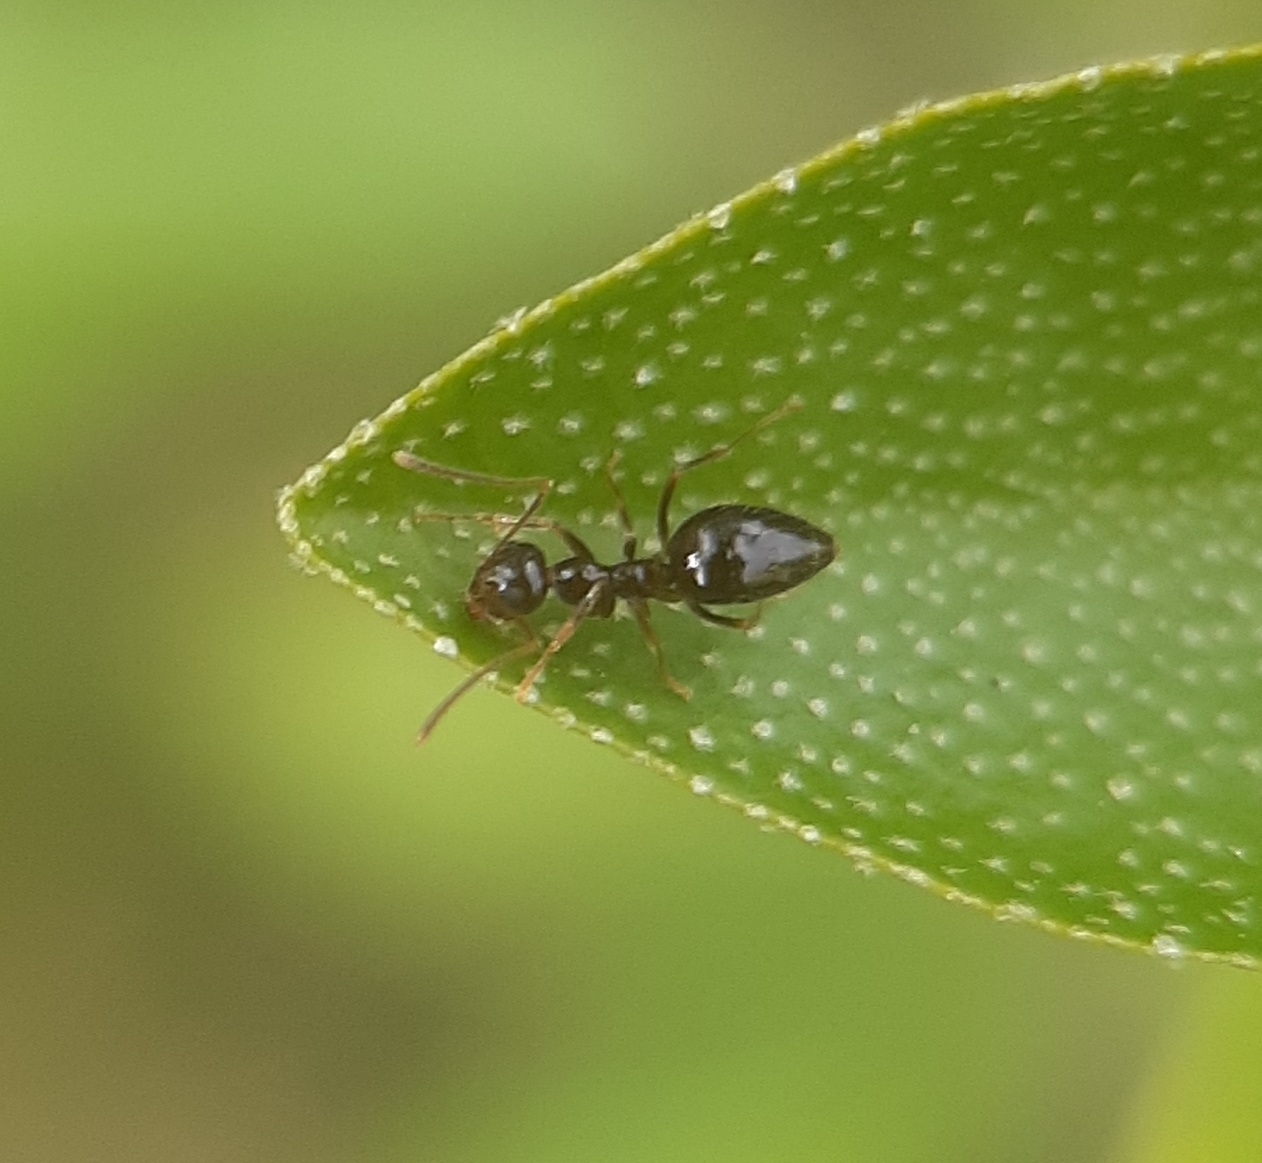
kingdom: Animalia
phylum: Arthropoda
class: Insecta
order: Hymenoptera
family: Formicidae
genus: Prenolepis
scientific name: Prenolepis imparis
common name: Small honey ant
